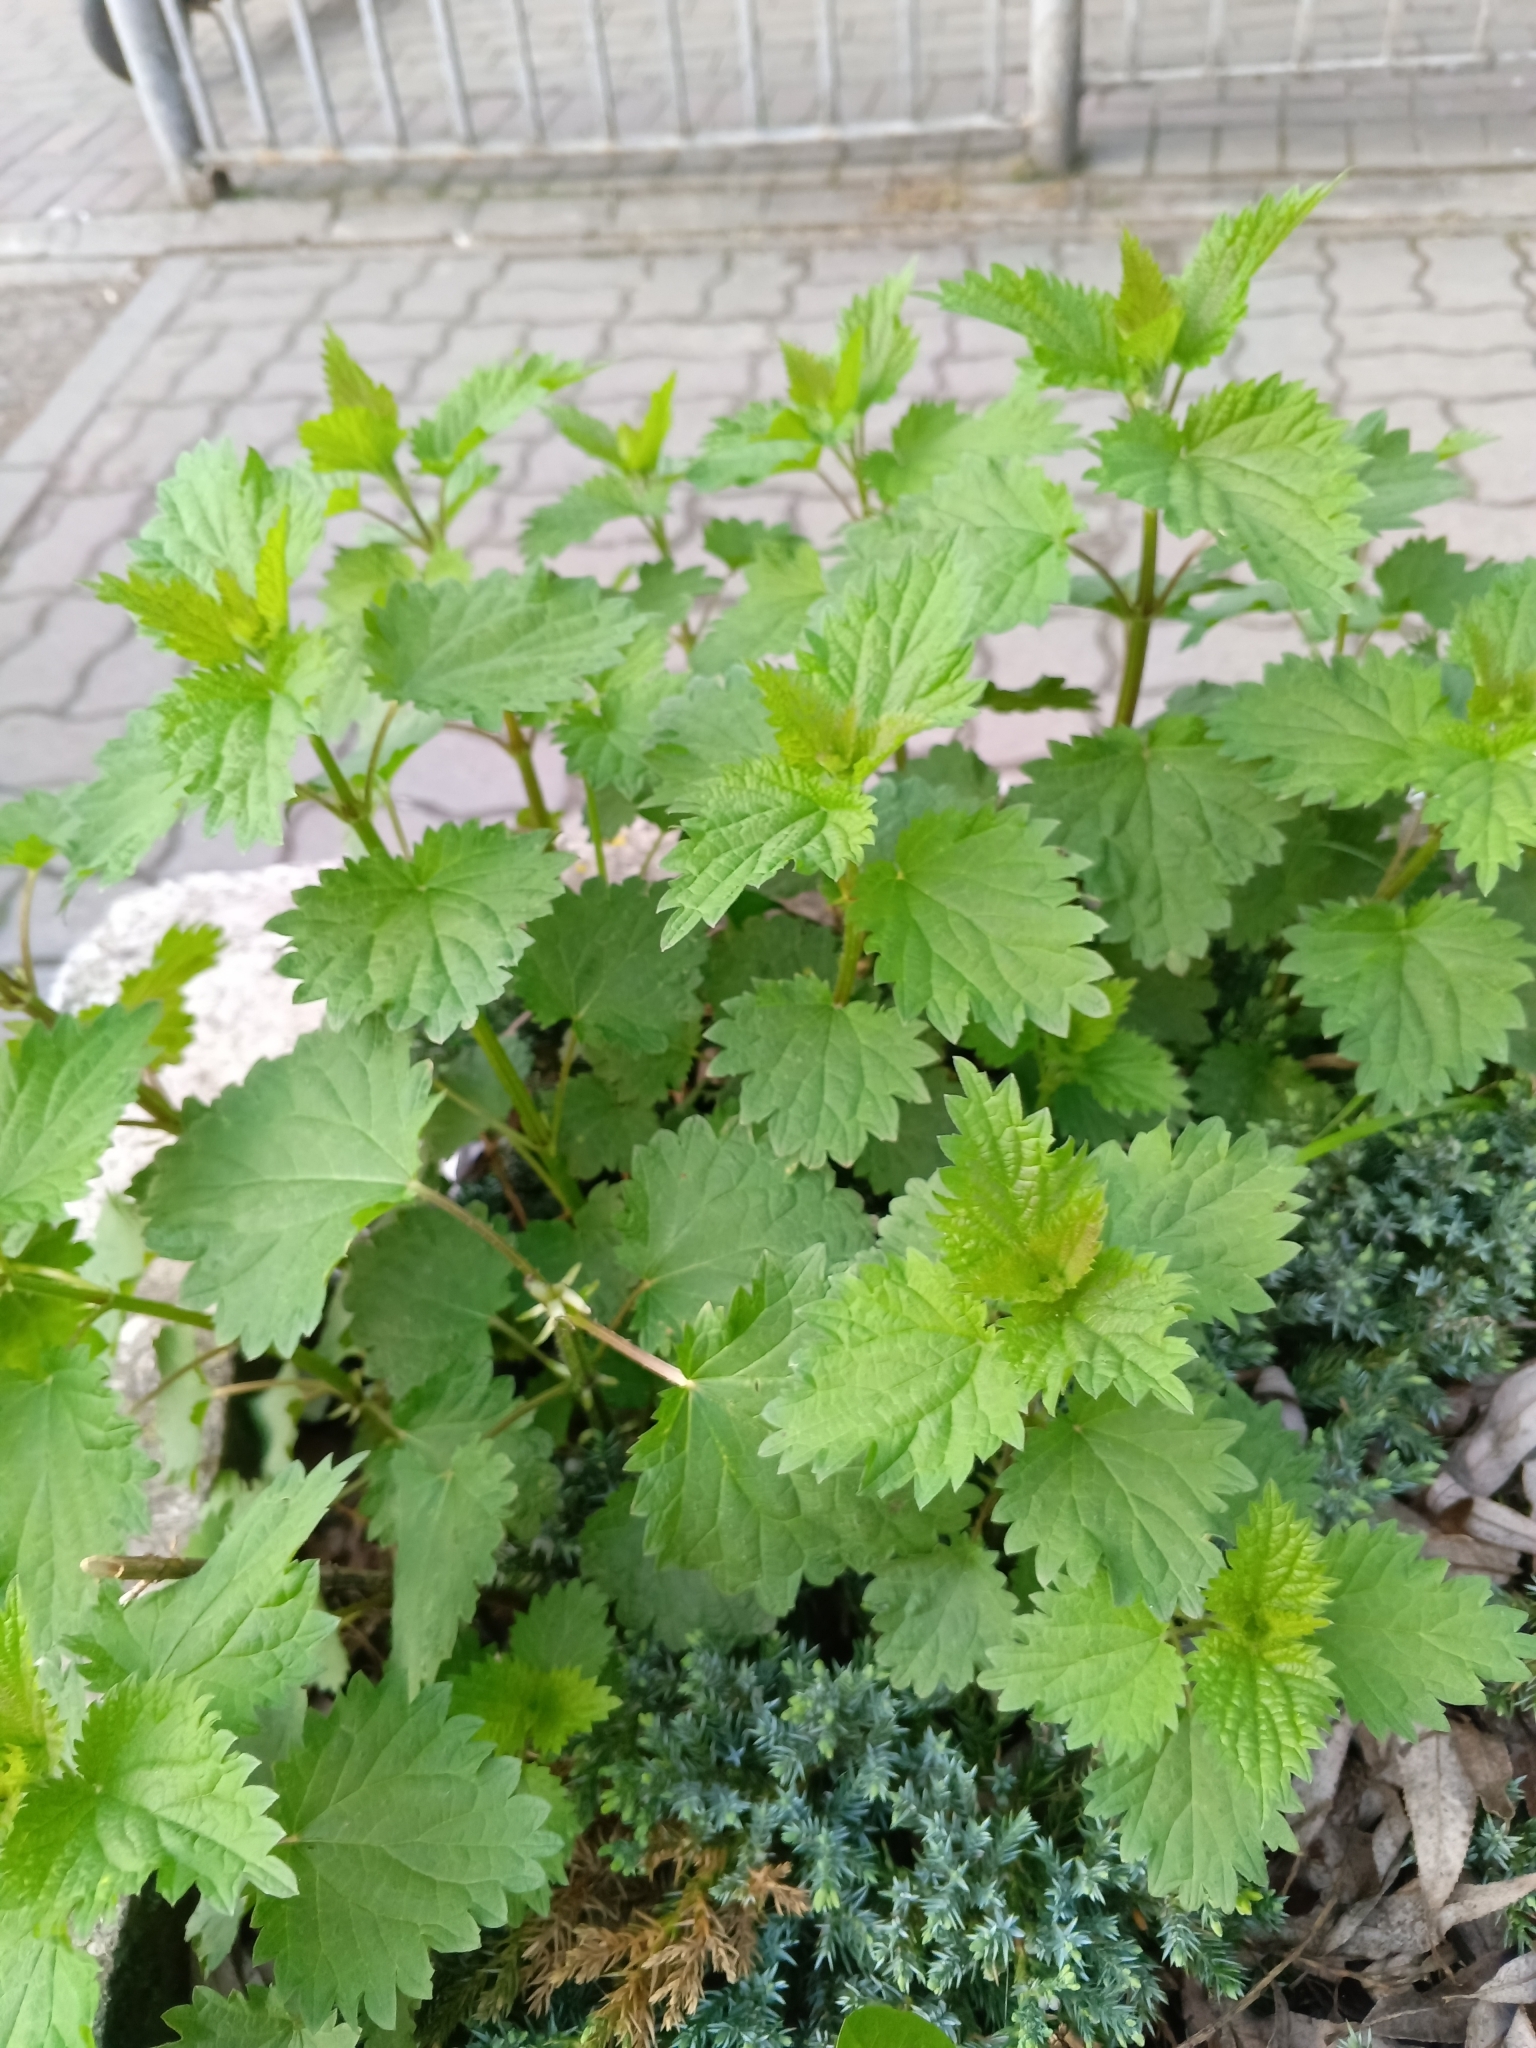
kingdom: Plantae
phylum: Tracheophyta
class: Magnoliopsida
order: Rosales
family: Urticaceae
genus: Urtica
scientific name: Urtica dioica
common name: Common nettle
